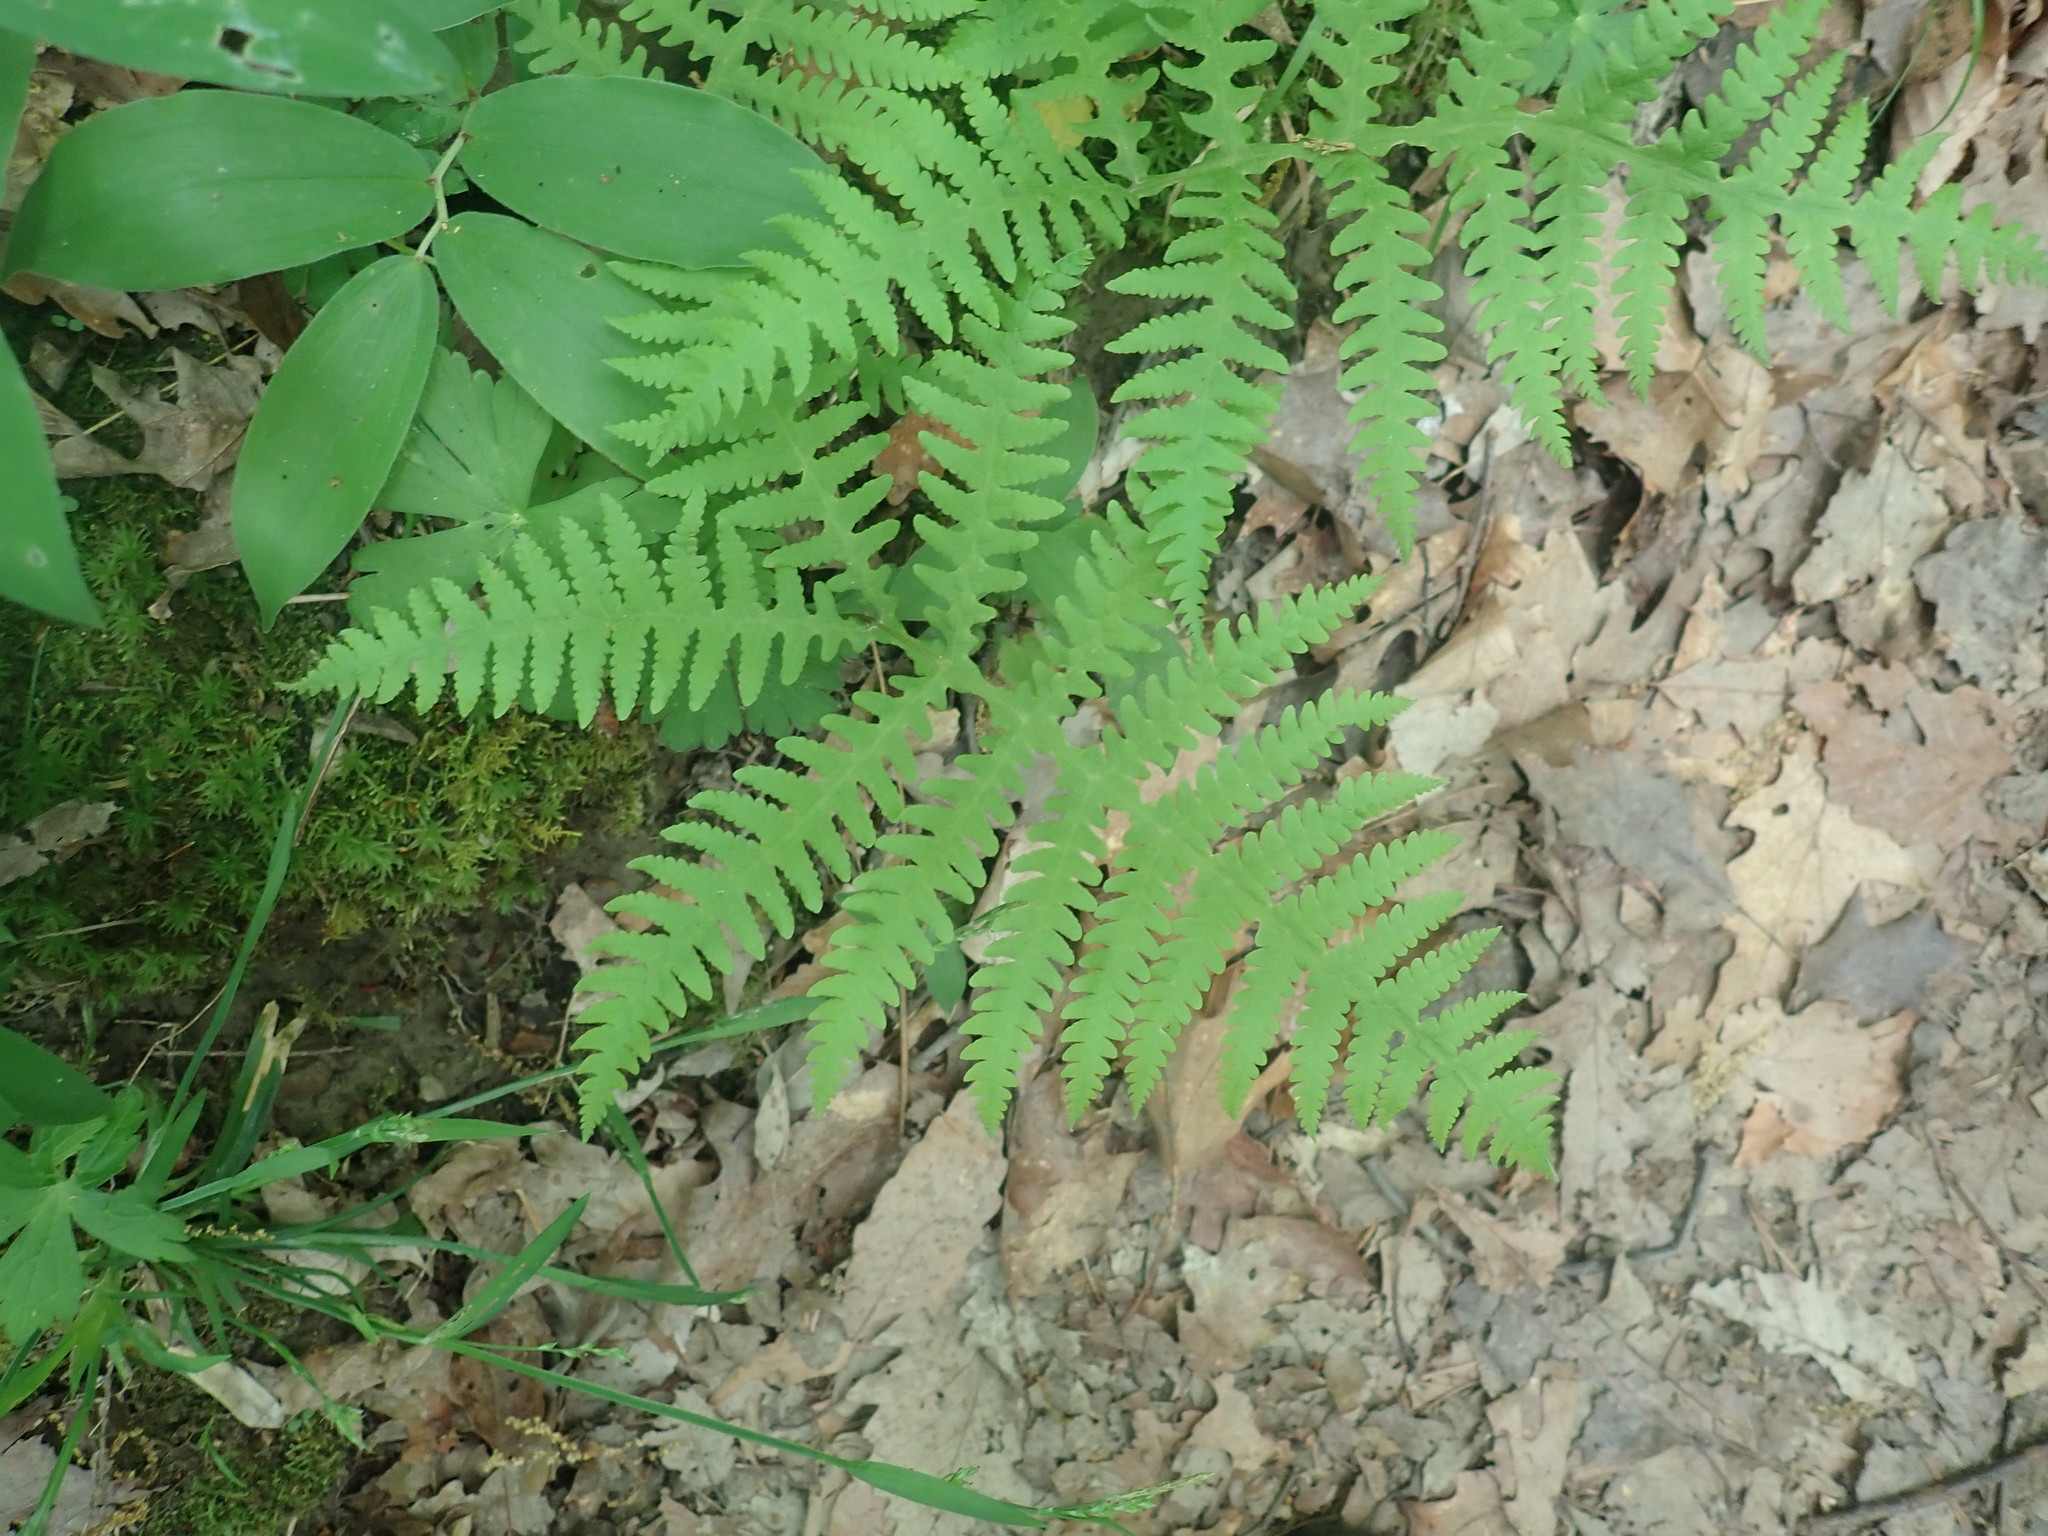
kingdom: Plantae
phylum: Tracheophyta
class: Polypodiopsida
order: Polypodiales
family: Thelypteridaceae
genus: Phegopteris
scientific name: Phegopteris hexagonoptera
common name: Broad beech fern
